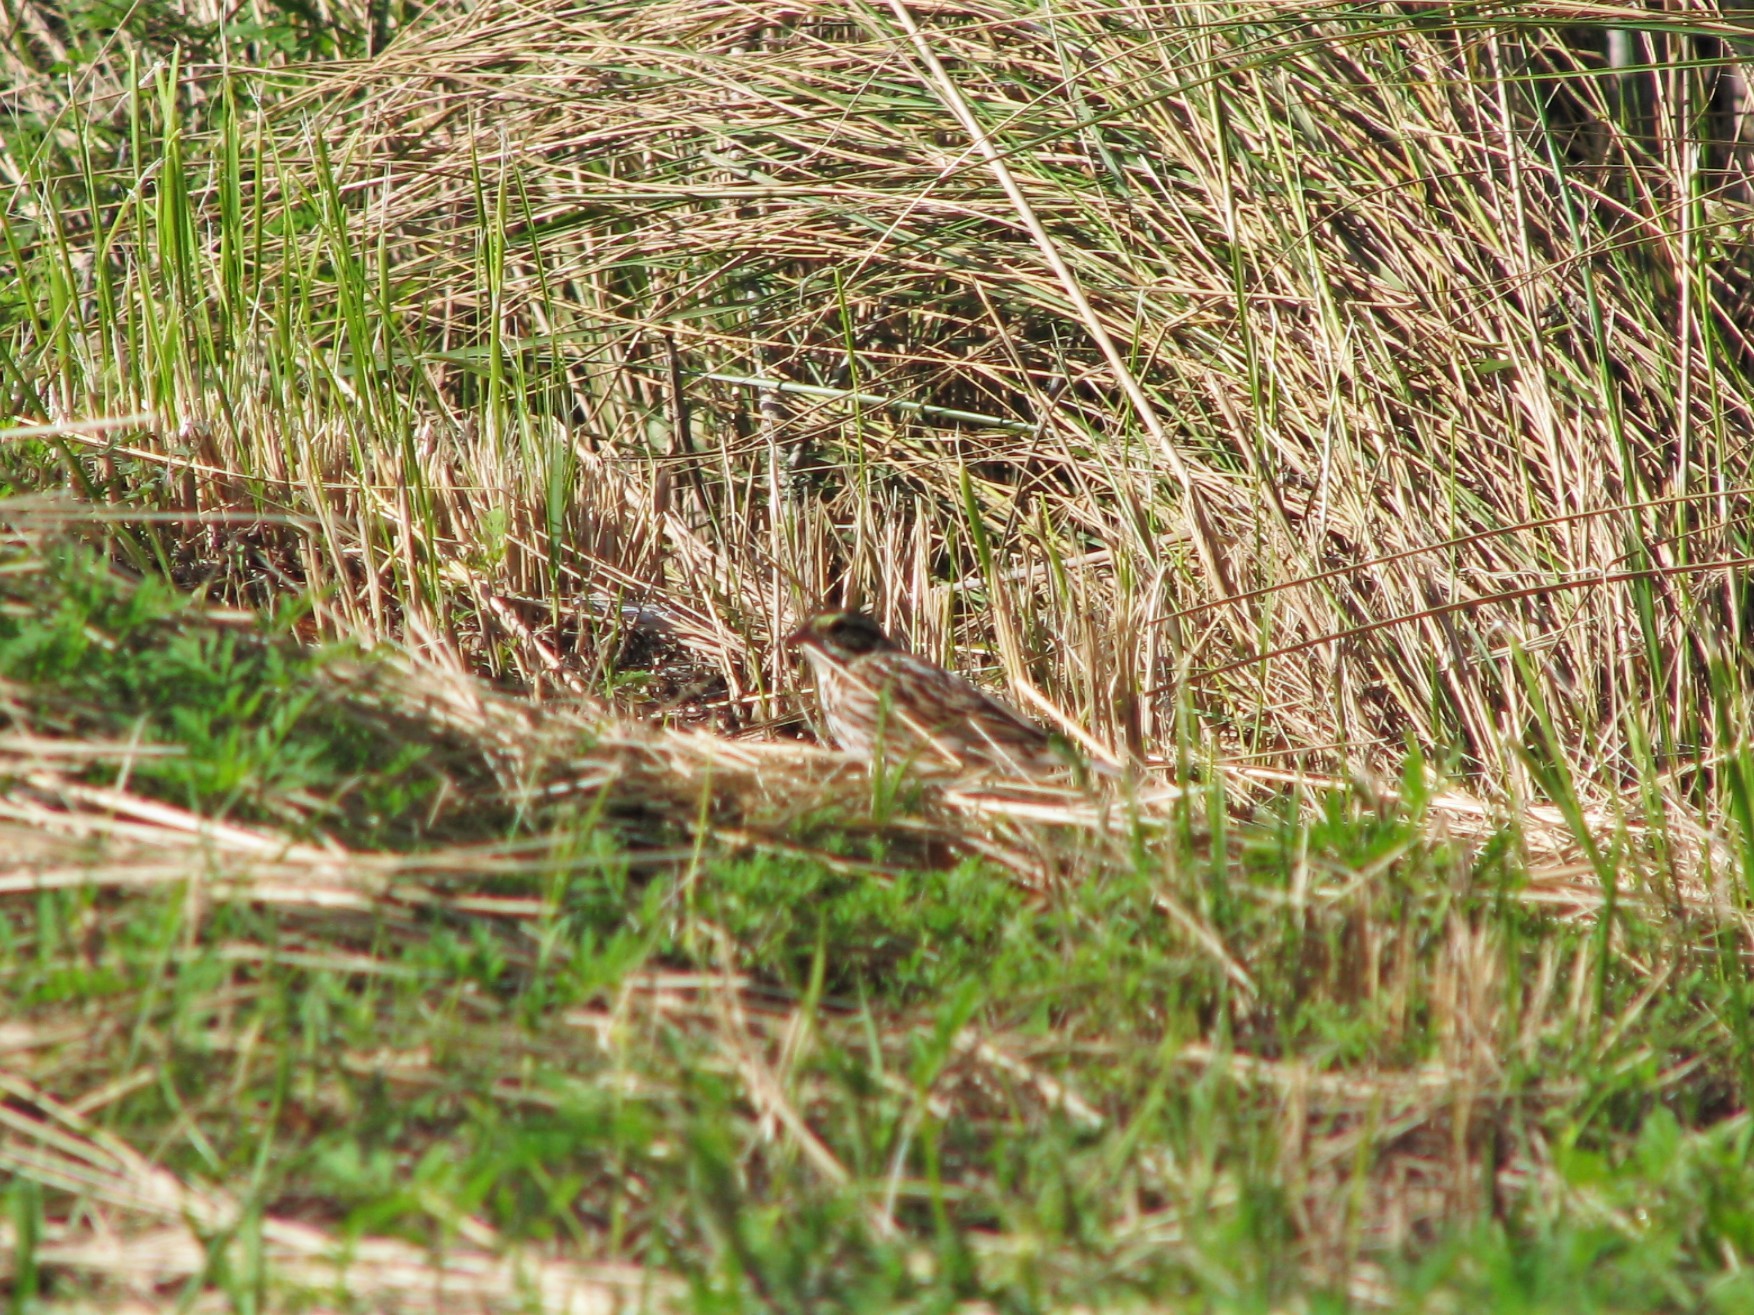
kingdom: Animalia
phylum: Chordata
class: Aves
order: Passeriformes
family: Passerellidae
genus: Passerculus
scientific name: Passerculus sandwichensis
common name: Savannah sparrow
